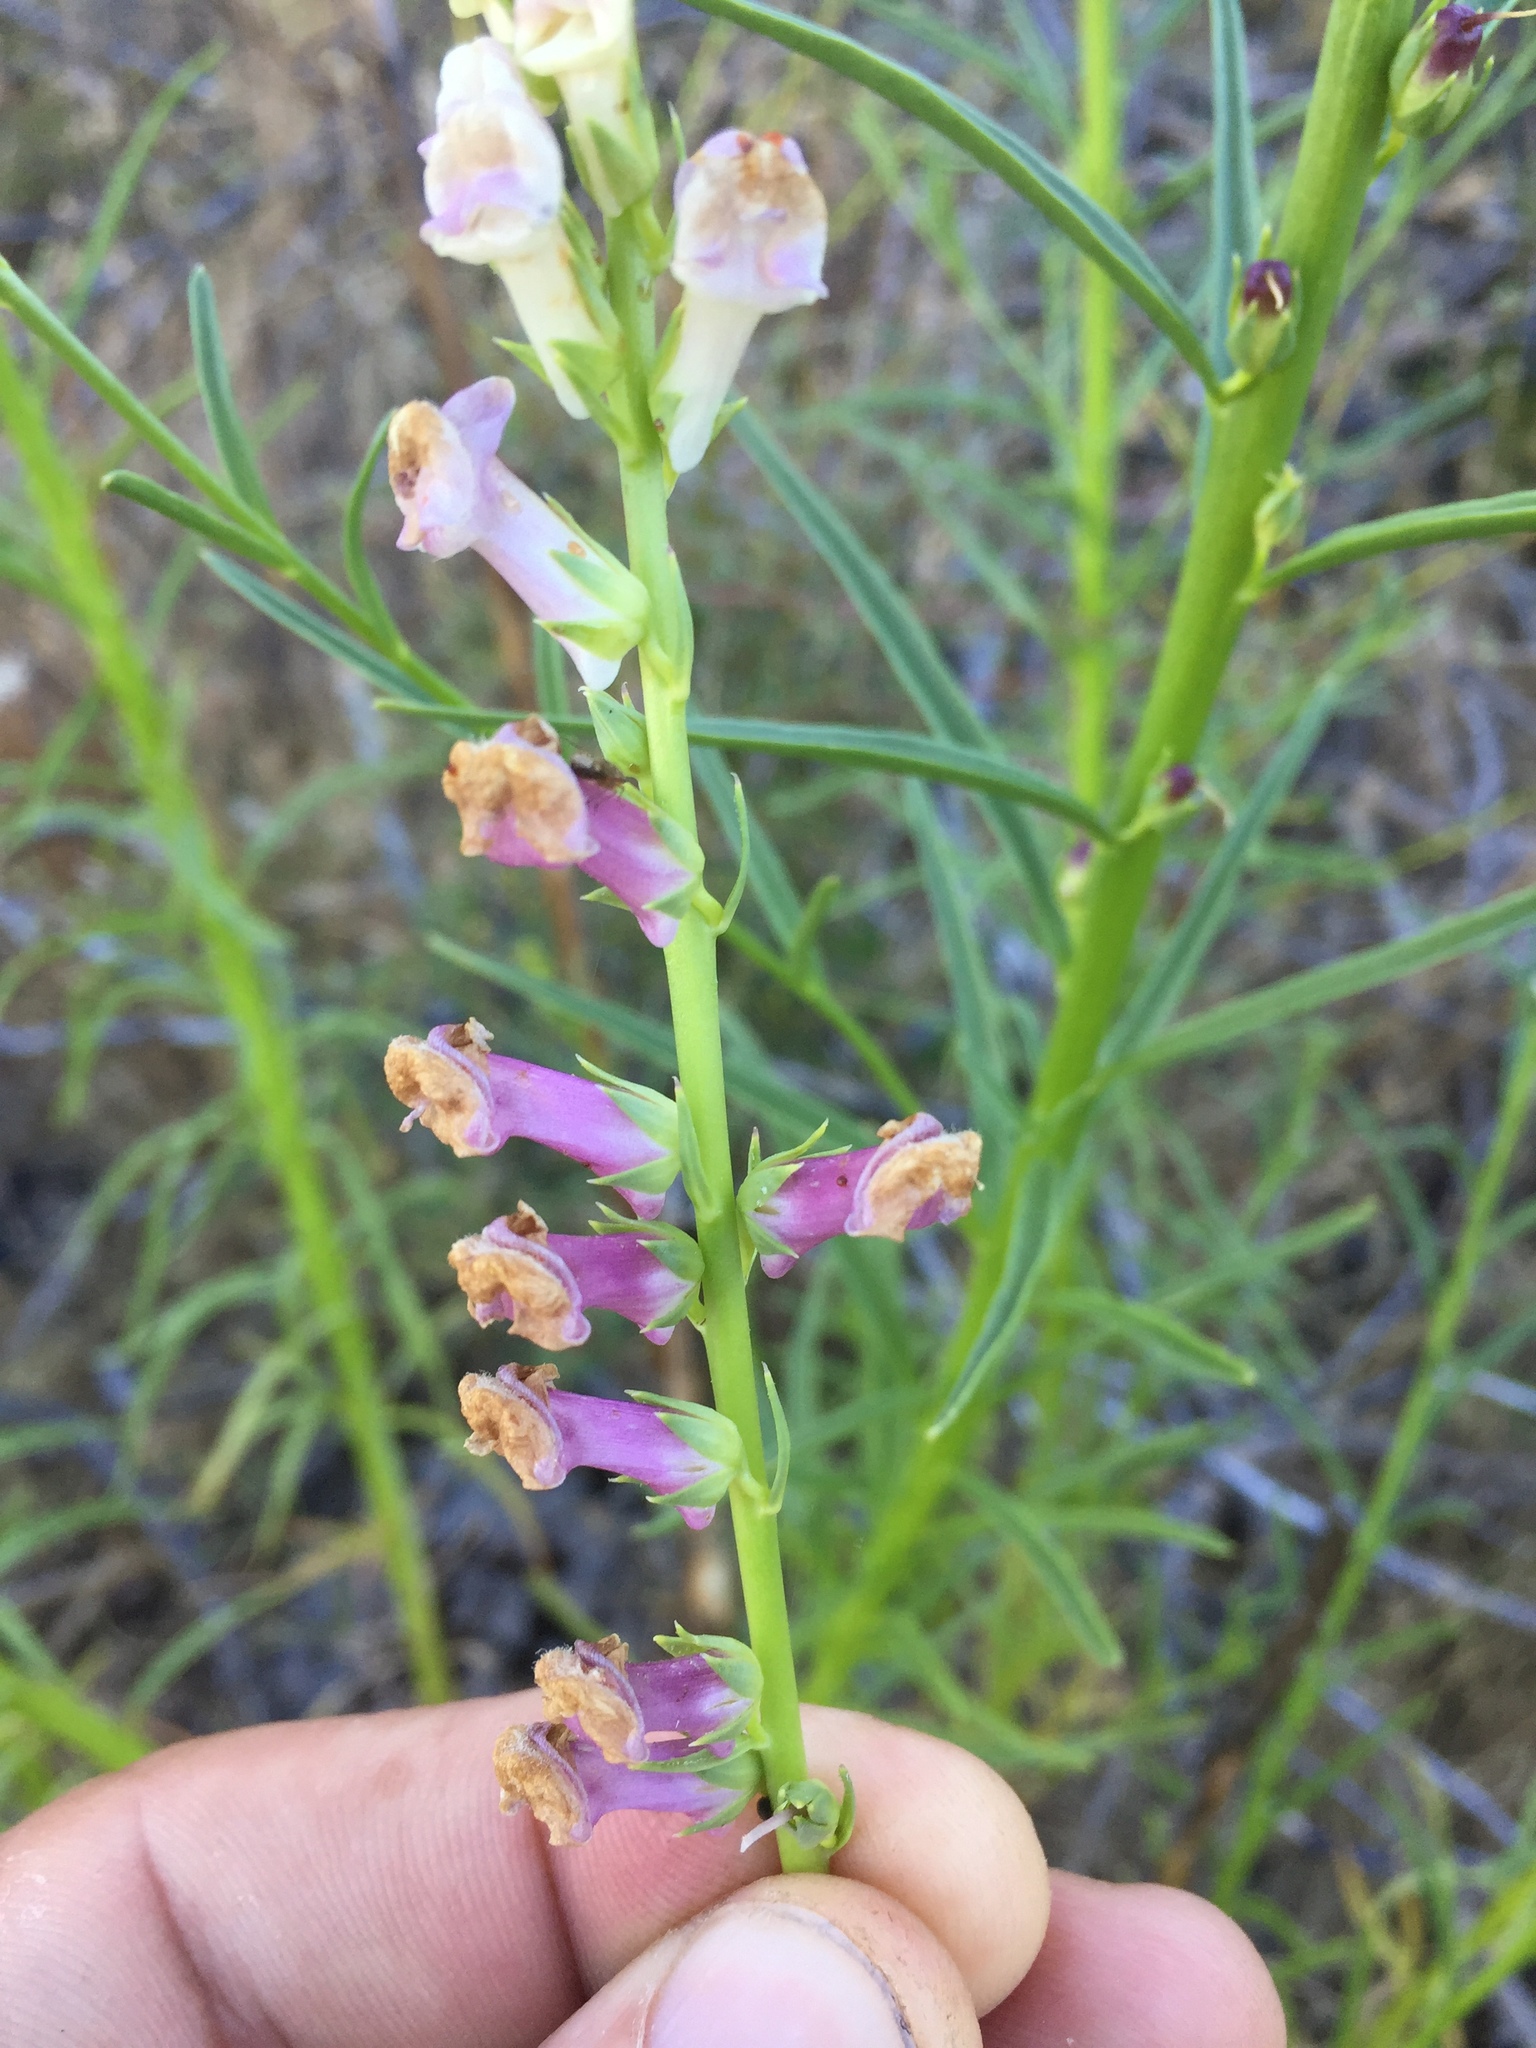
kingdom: Plantae
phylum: Tracheophyta
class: Magnoliopsida
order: Lamiales
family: Plantaginaceae
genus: Sairocarpus
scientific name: Sairocarpus virga
